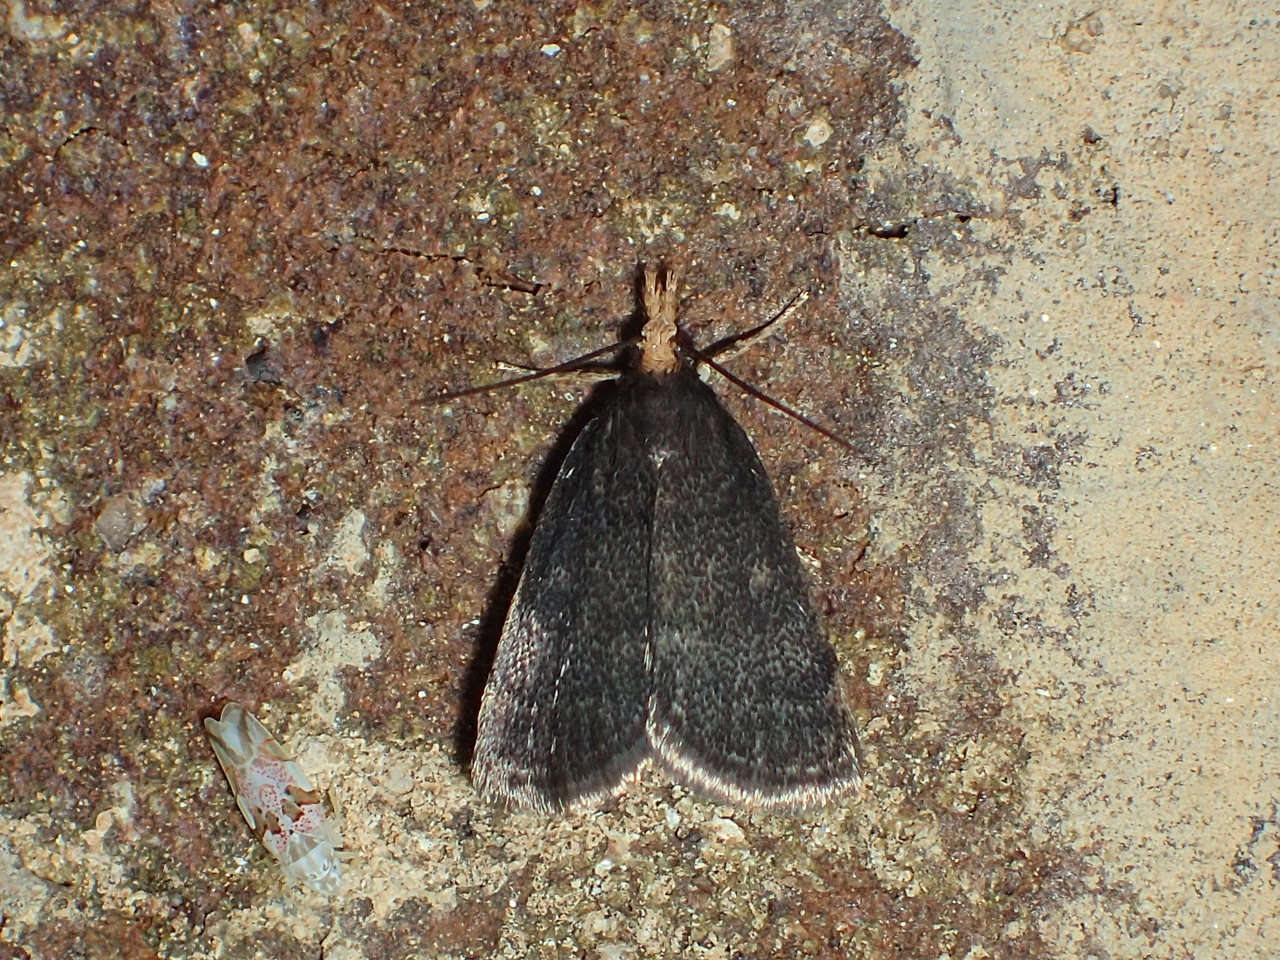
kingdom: Animalia
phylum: Arthropoda
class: Insecta
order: Lepidoptera
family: Crambidae
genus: Pyrausta
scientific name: Pyrausta merrickalis
